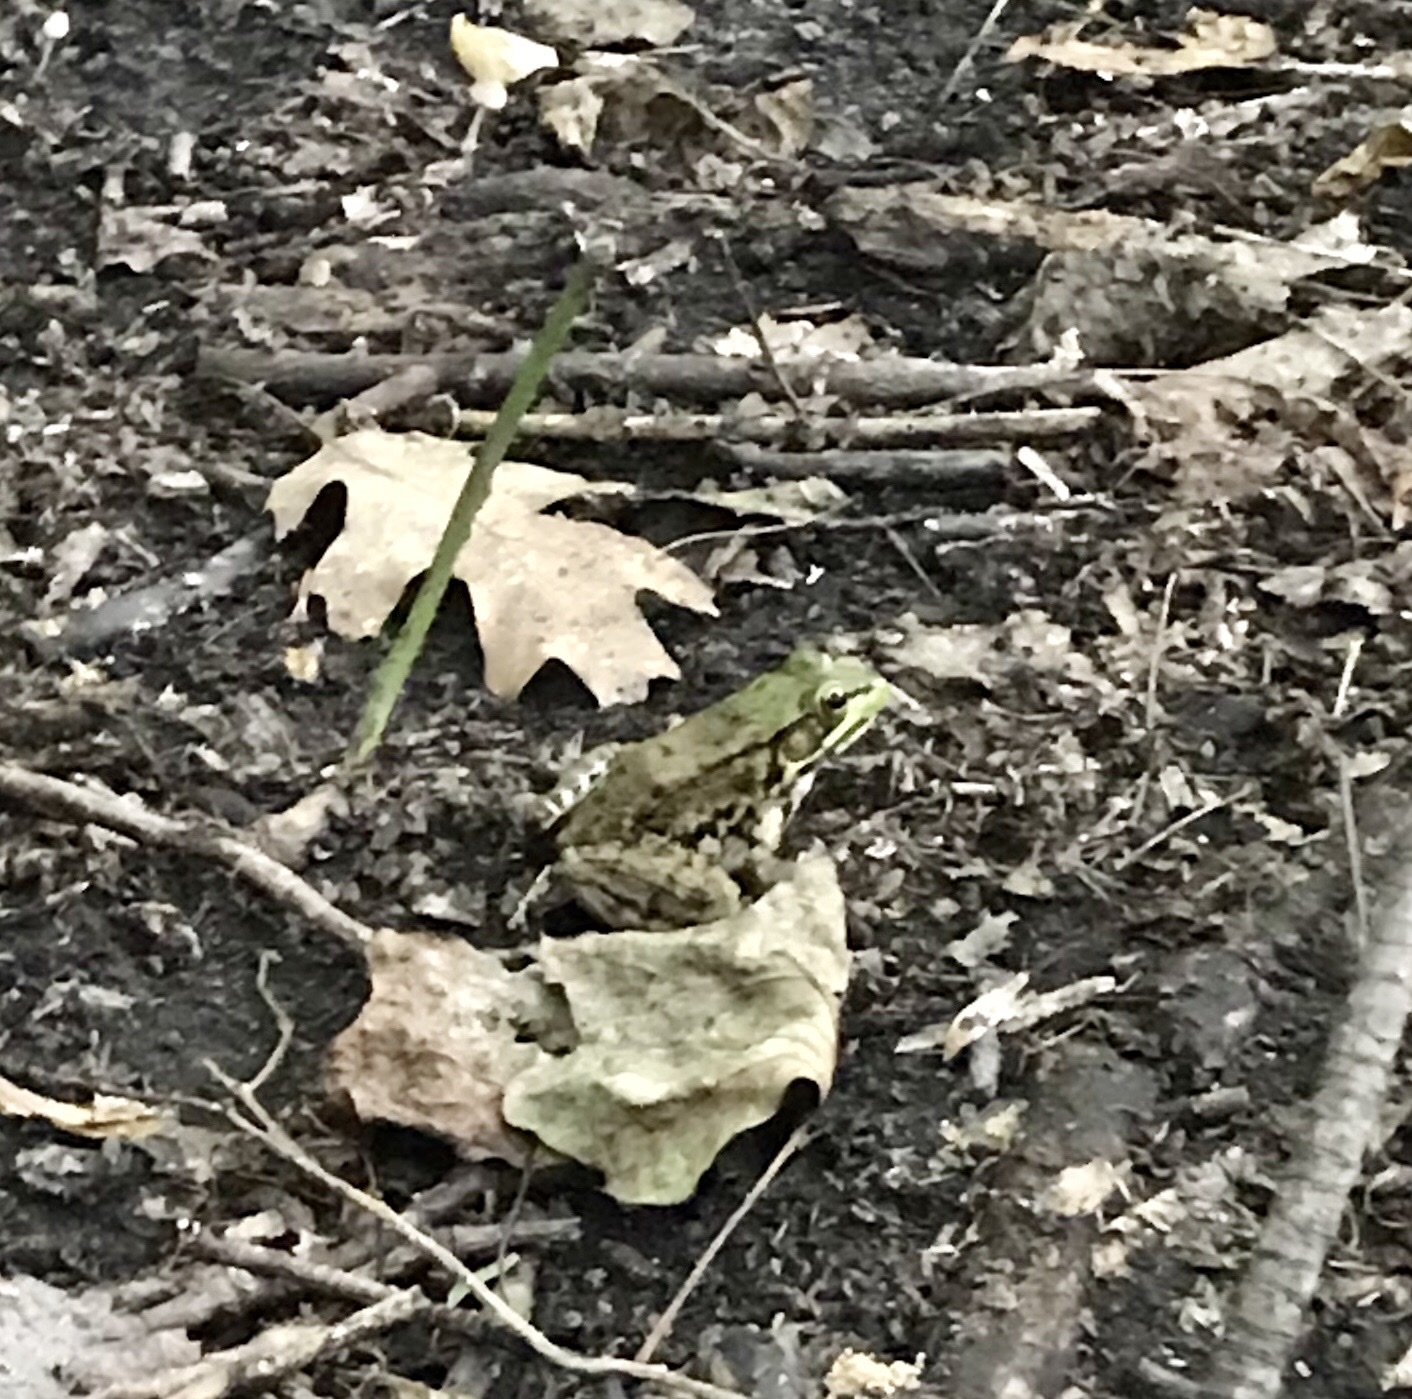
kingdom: Animalia
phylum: Chordata
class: Amphibia
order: Anura
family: Ranidae
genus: Lithobates
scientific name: Lithobates clamitans
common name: Green frog
